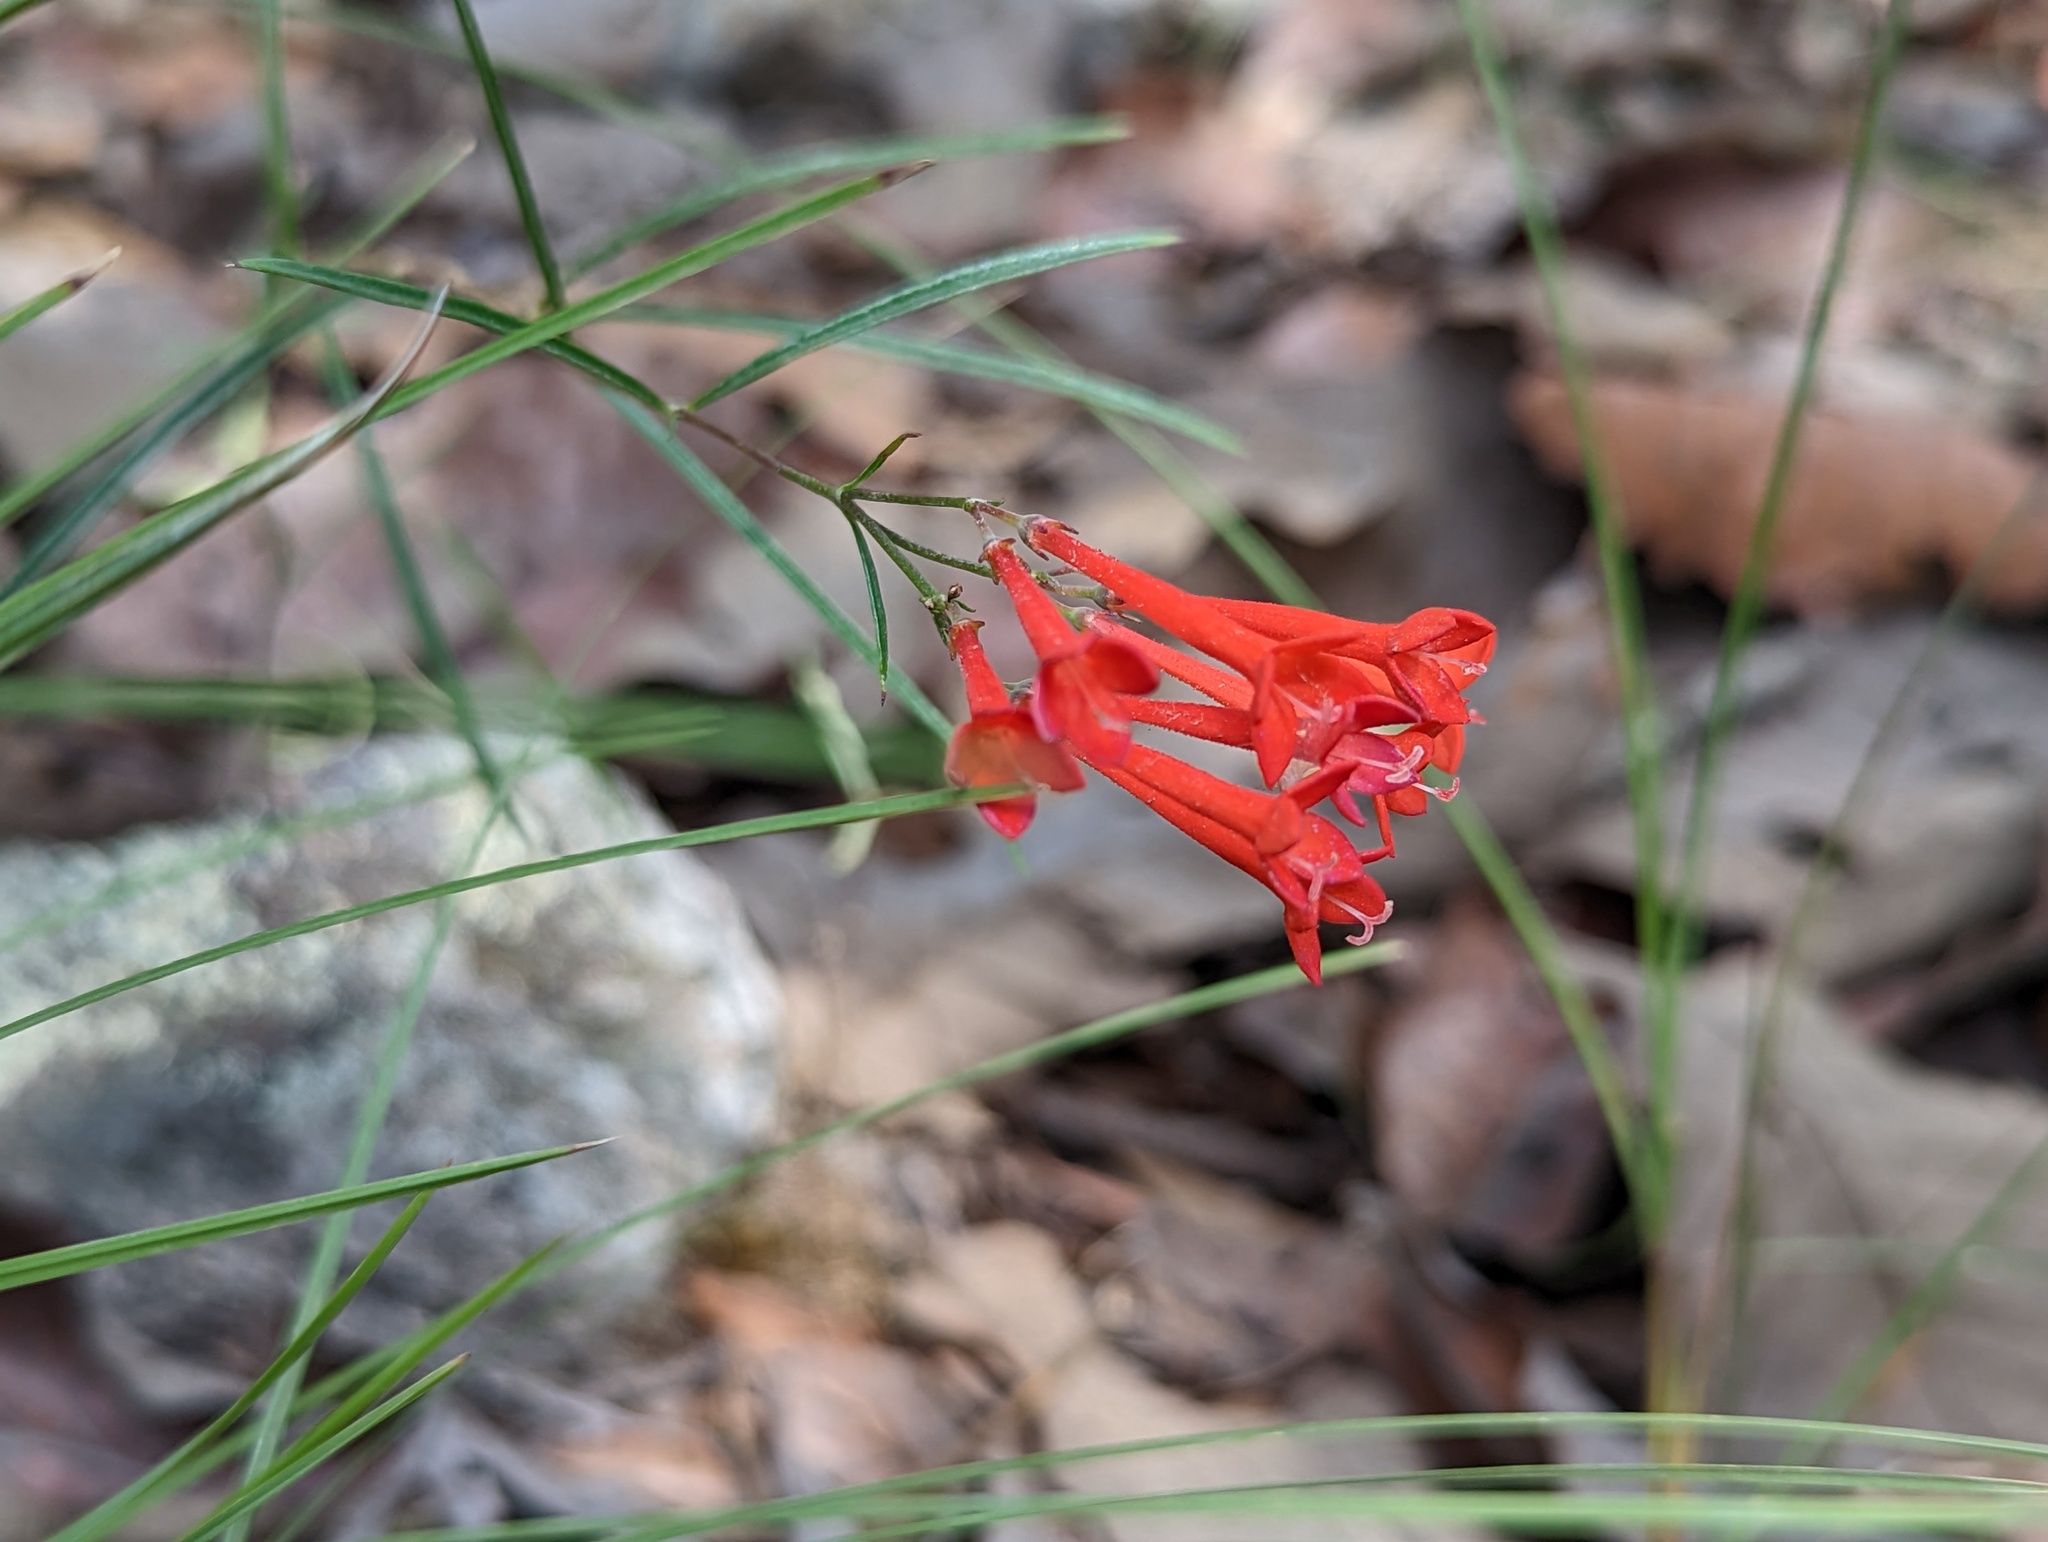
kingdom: Plantae
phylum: Tracheophyta
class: Magnoliopsida
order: Gentianales
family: Rubiaceae
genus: Bouvardia
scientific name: Bouvardia ternifolia
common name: Scarlet bouvardia
